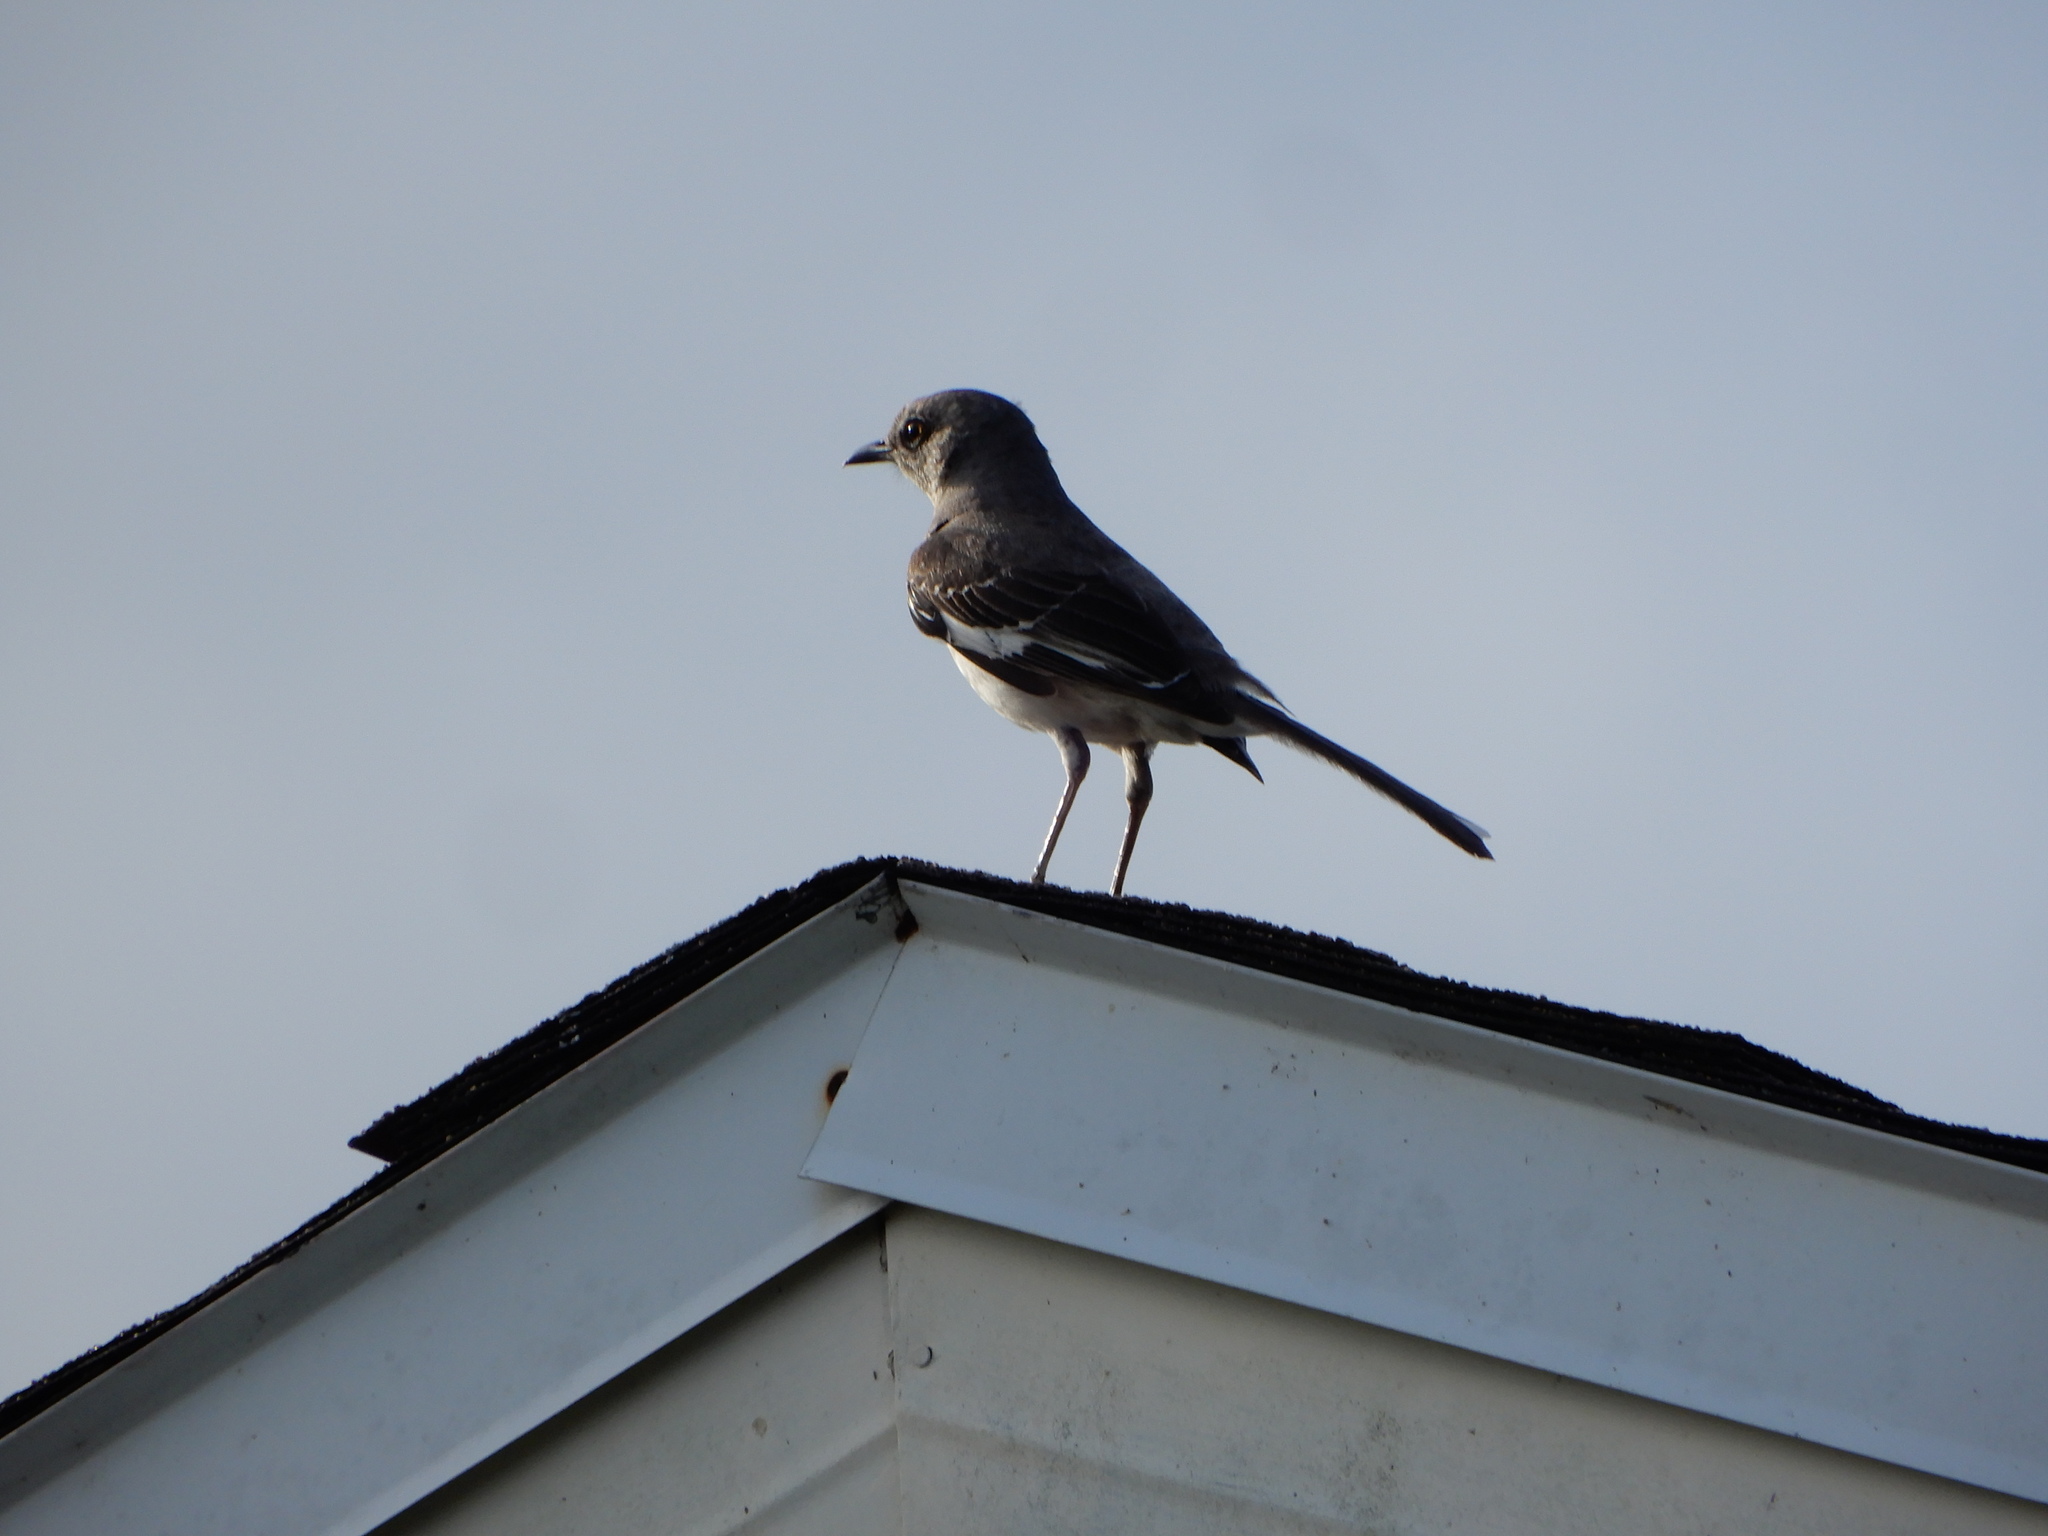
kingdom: Animalia
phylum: Chordata
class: Aves
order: Passeriformes
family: Mimidae
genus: Mimus
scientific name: Mimus polyglottos
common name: Northern mockingbird
